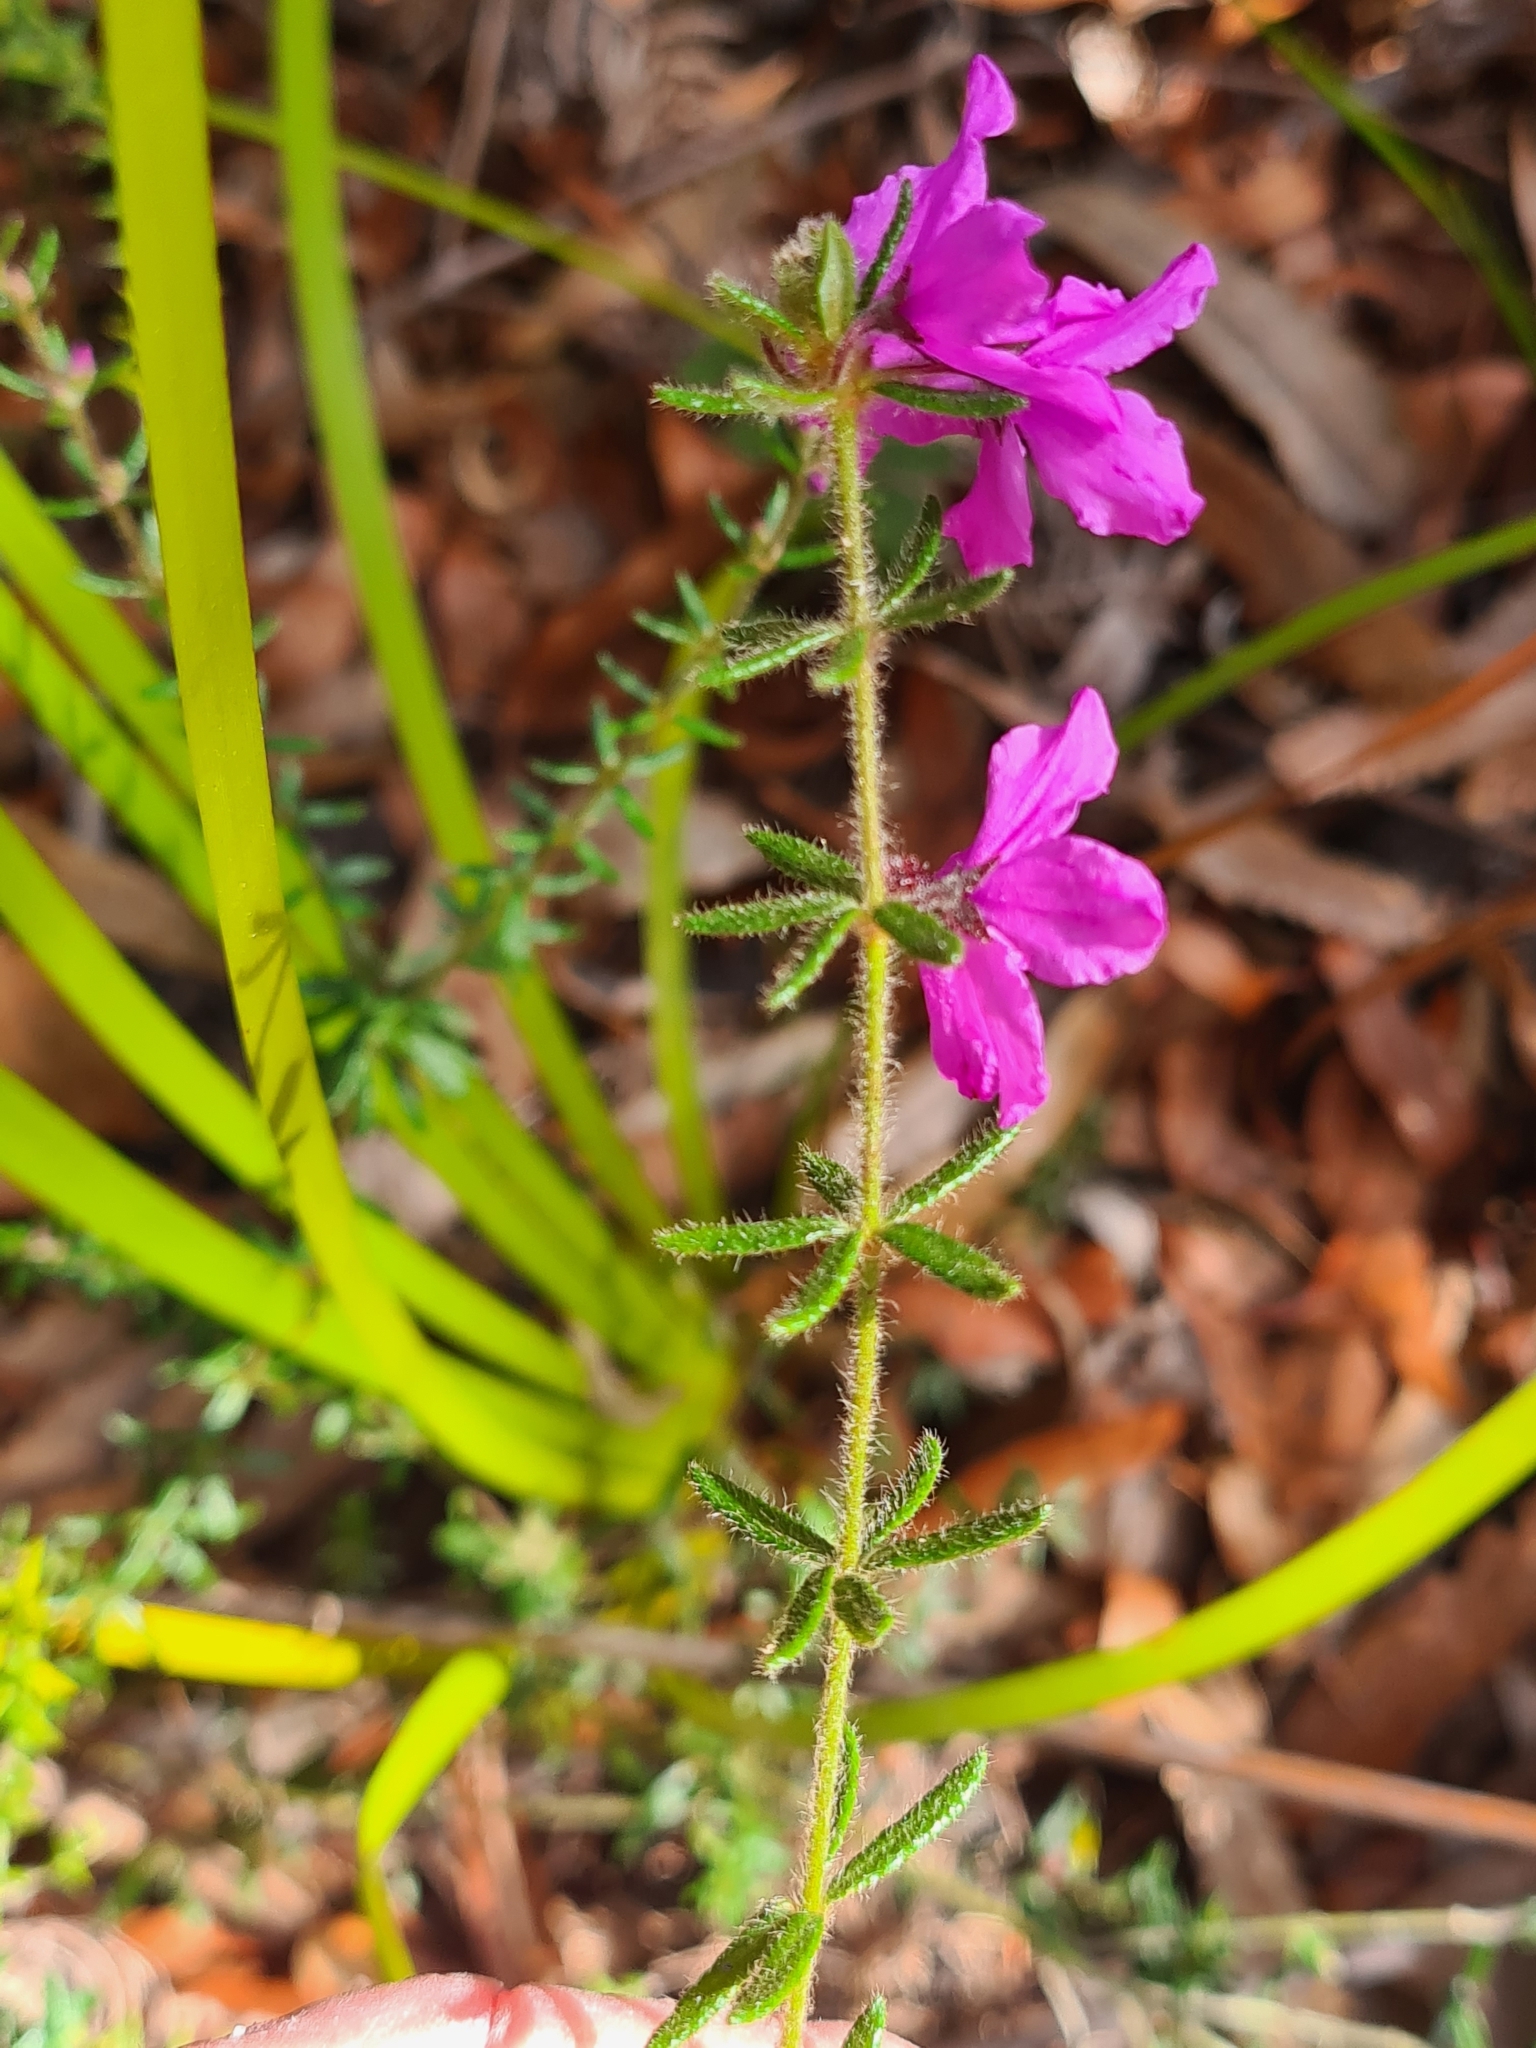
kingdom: Plantae
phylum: Tracheophyta
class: Magnoliopsida
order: Oxalidales
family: Elaeocarpaceae
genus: Tetratheca
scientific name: Tetratheca thymifolia
